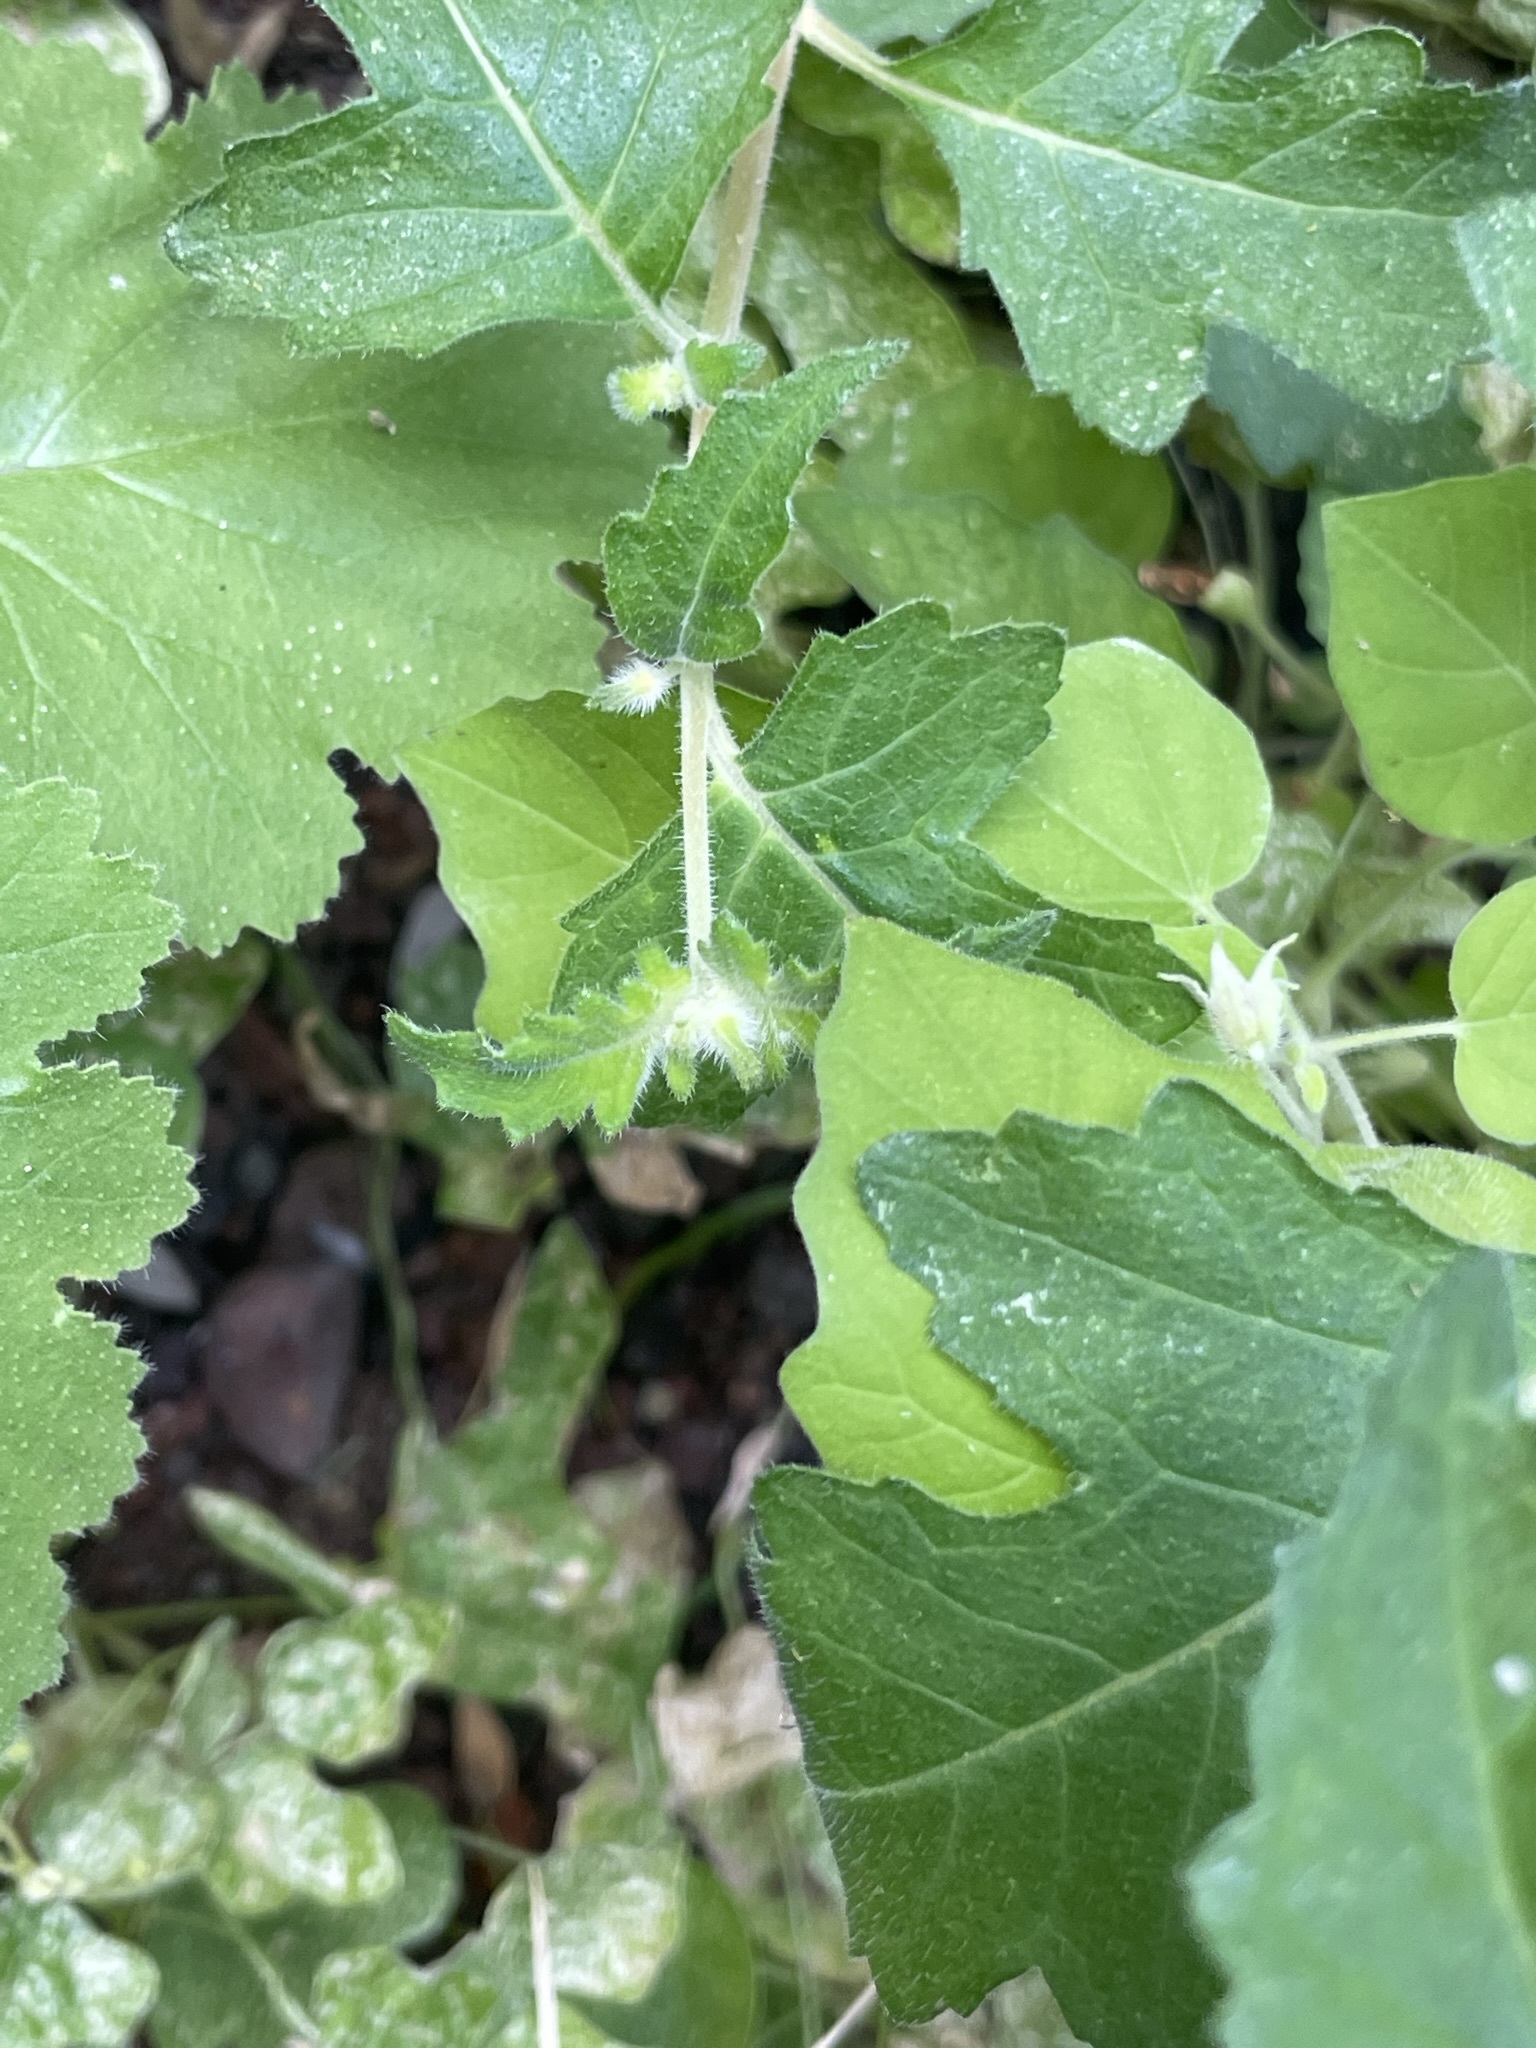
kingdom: Plantae
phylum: Tracheophyta
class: Magnoliopsida
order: Cornales
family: Loasaceae
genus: Mentzelia
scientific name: Mentzelia adhaerens
